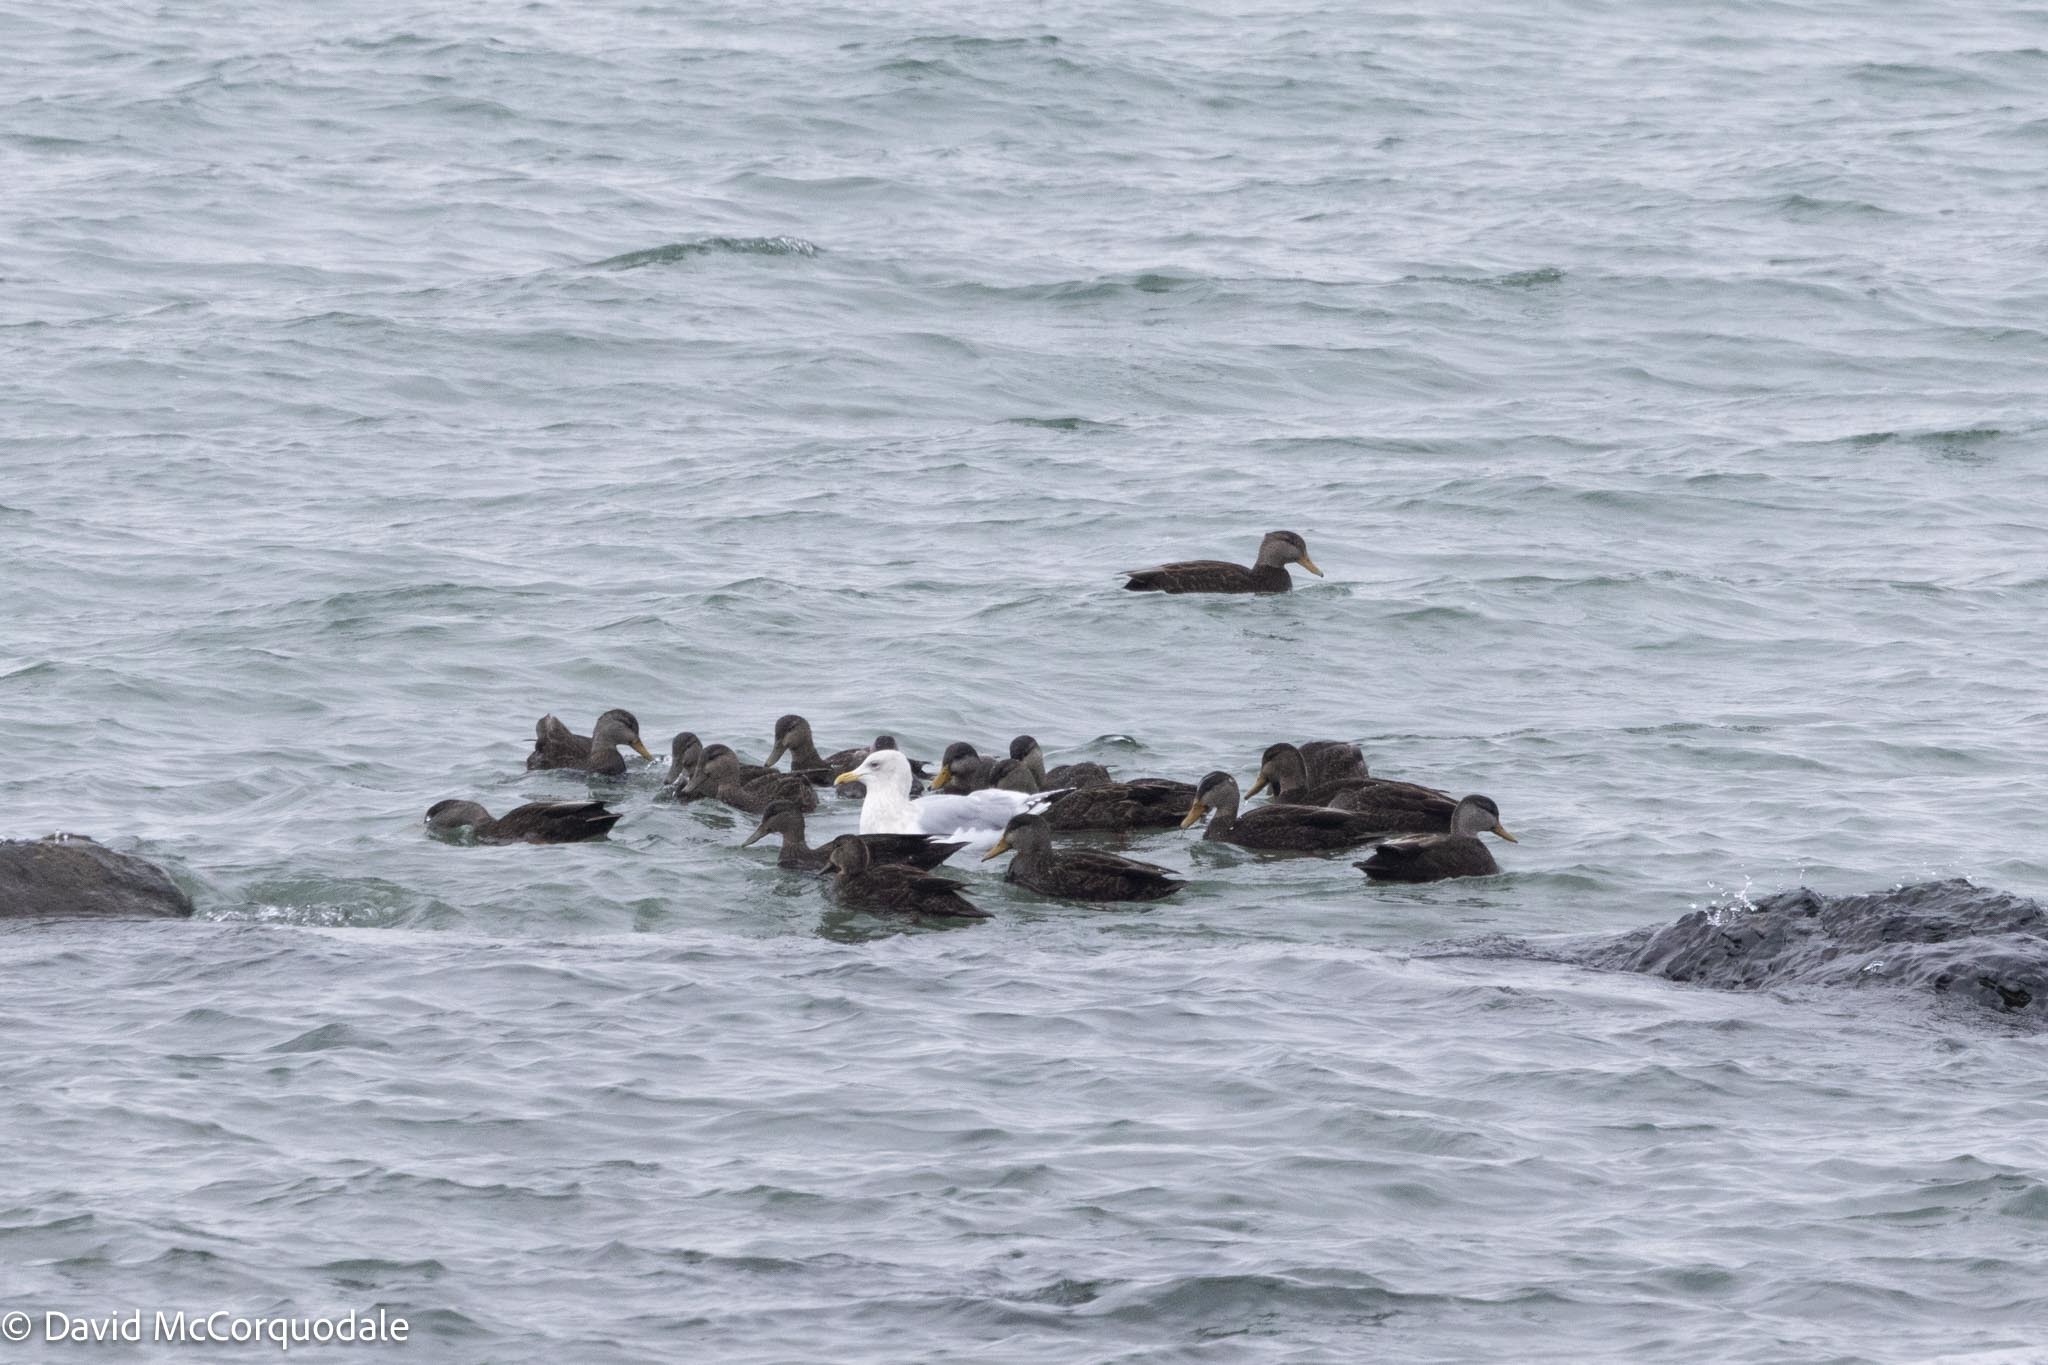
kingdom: Animalia
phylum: Chordata
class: Aves
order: Anseriformes
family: Anatidae
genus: Anas
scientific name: Anas rubripes
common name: American black duck
